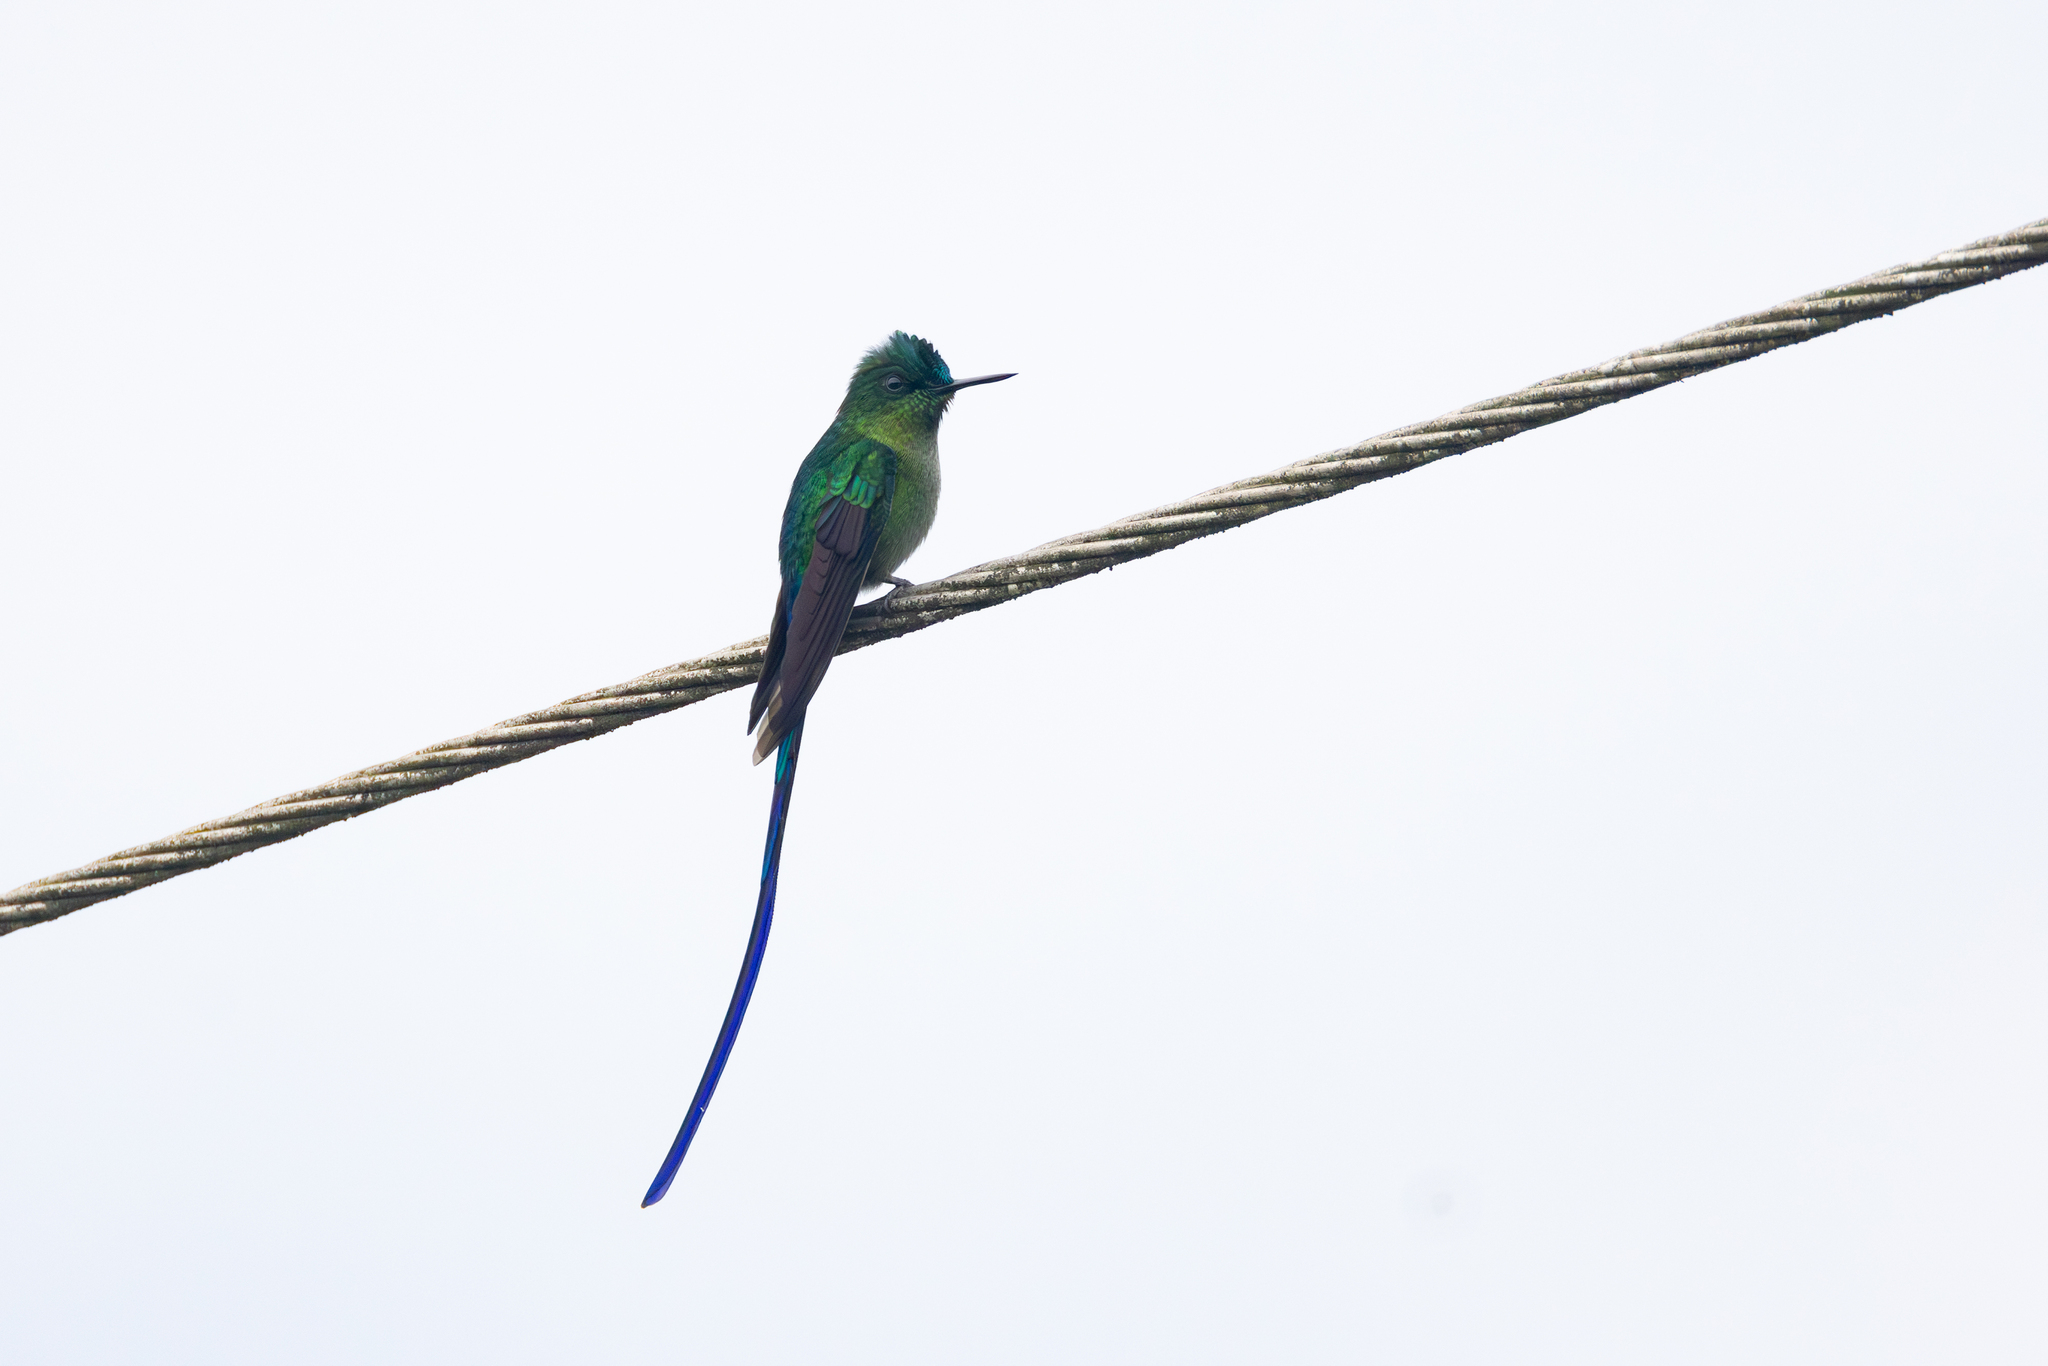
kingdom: Animalia
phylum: Chordata
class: Aves
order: Apodiformes
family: Trochilidae
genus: Aglaiocercus
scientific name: Aglaiocercus kingii
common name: Long-tailed sylph
